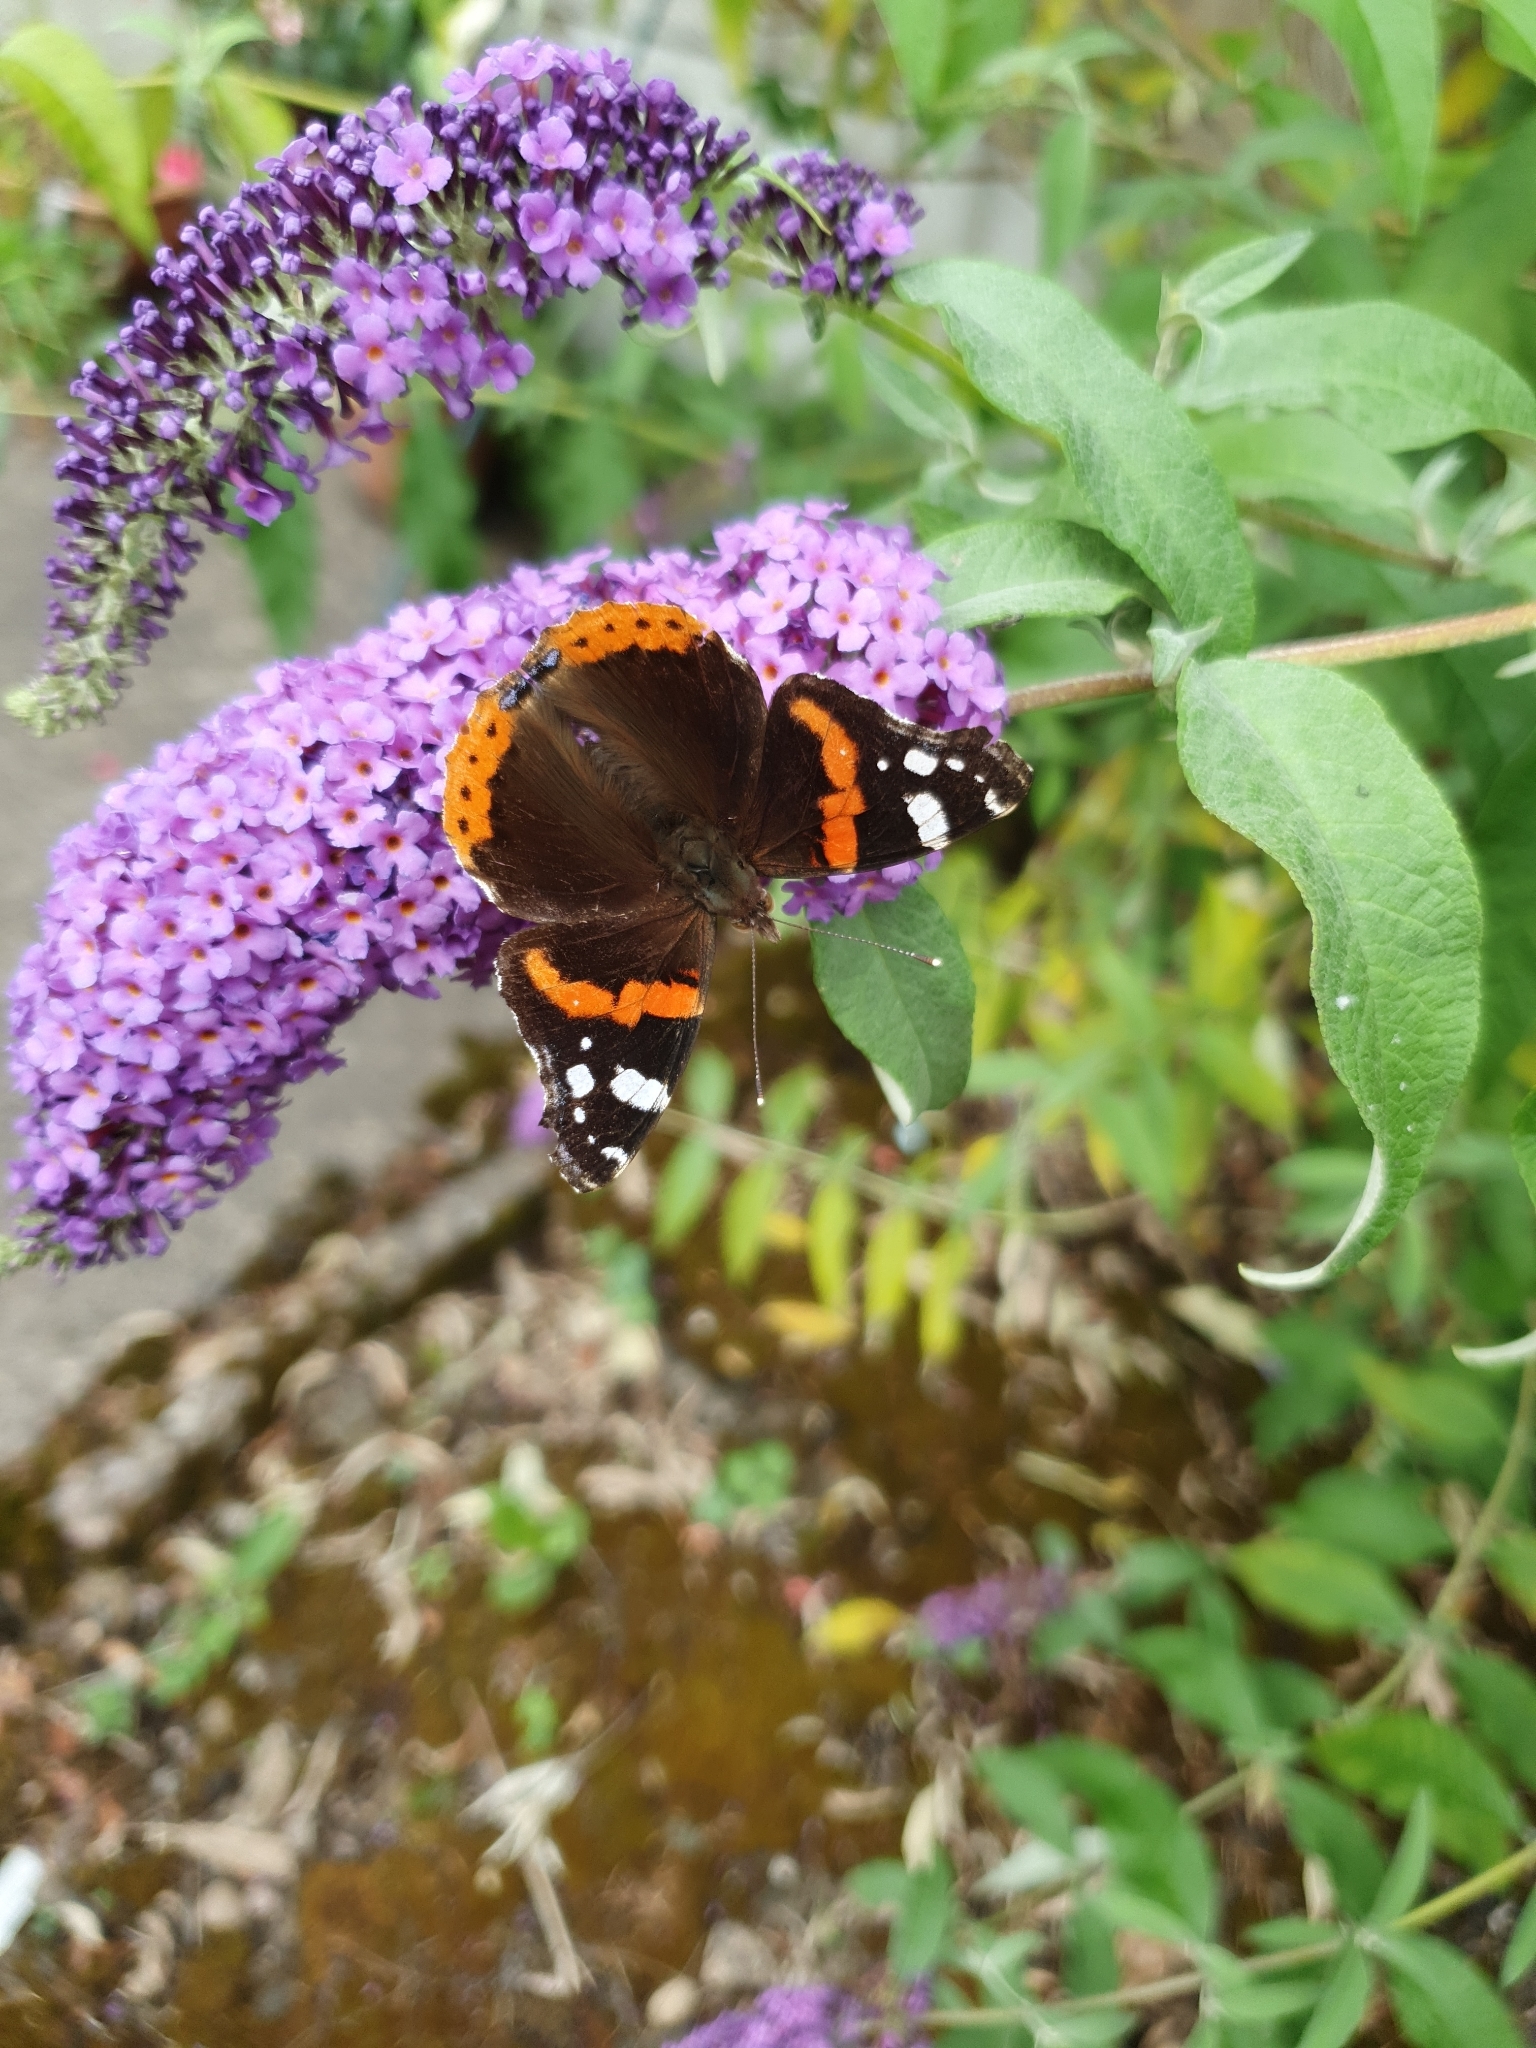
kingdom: Animalia
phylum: Arthropoda
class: Insecta
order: Lepidoptera
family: Nymphalidae
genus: Vanessa
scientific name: Vanessa atalanta
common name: Red admiral
